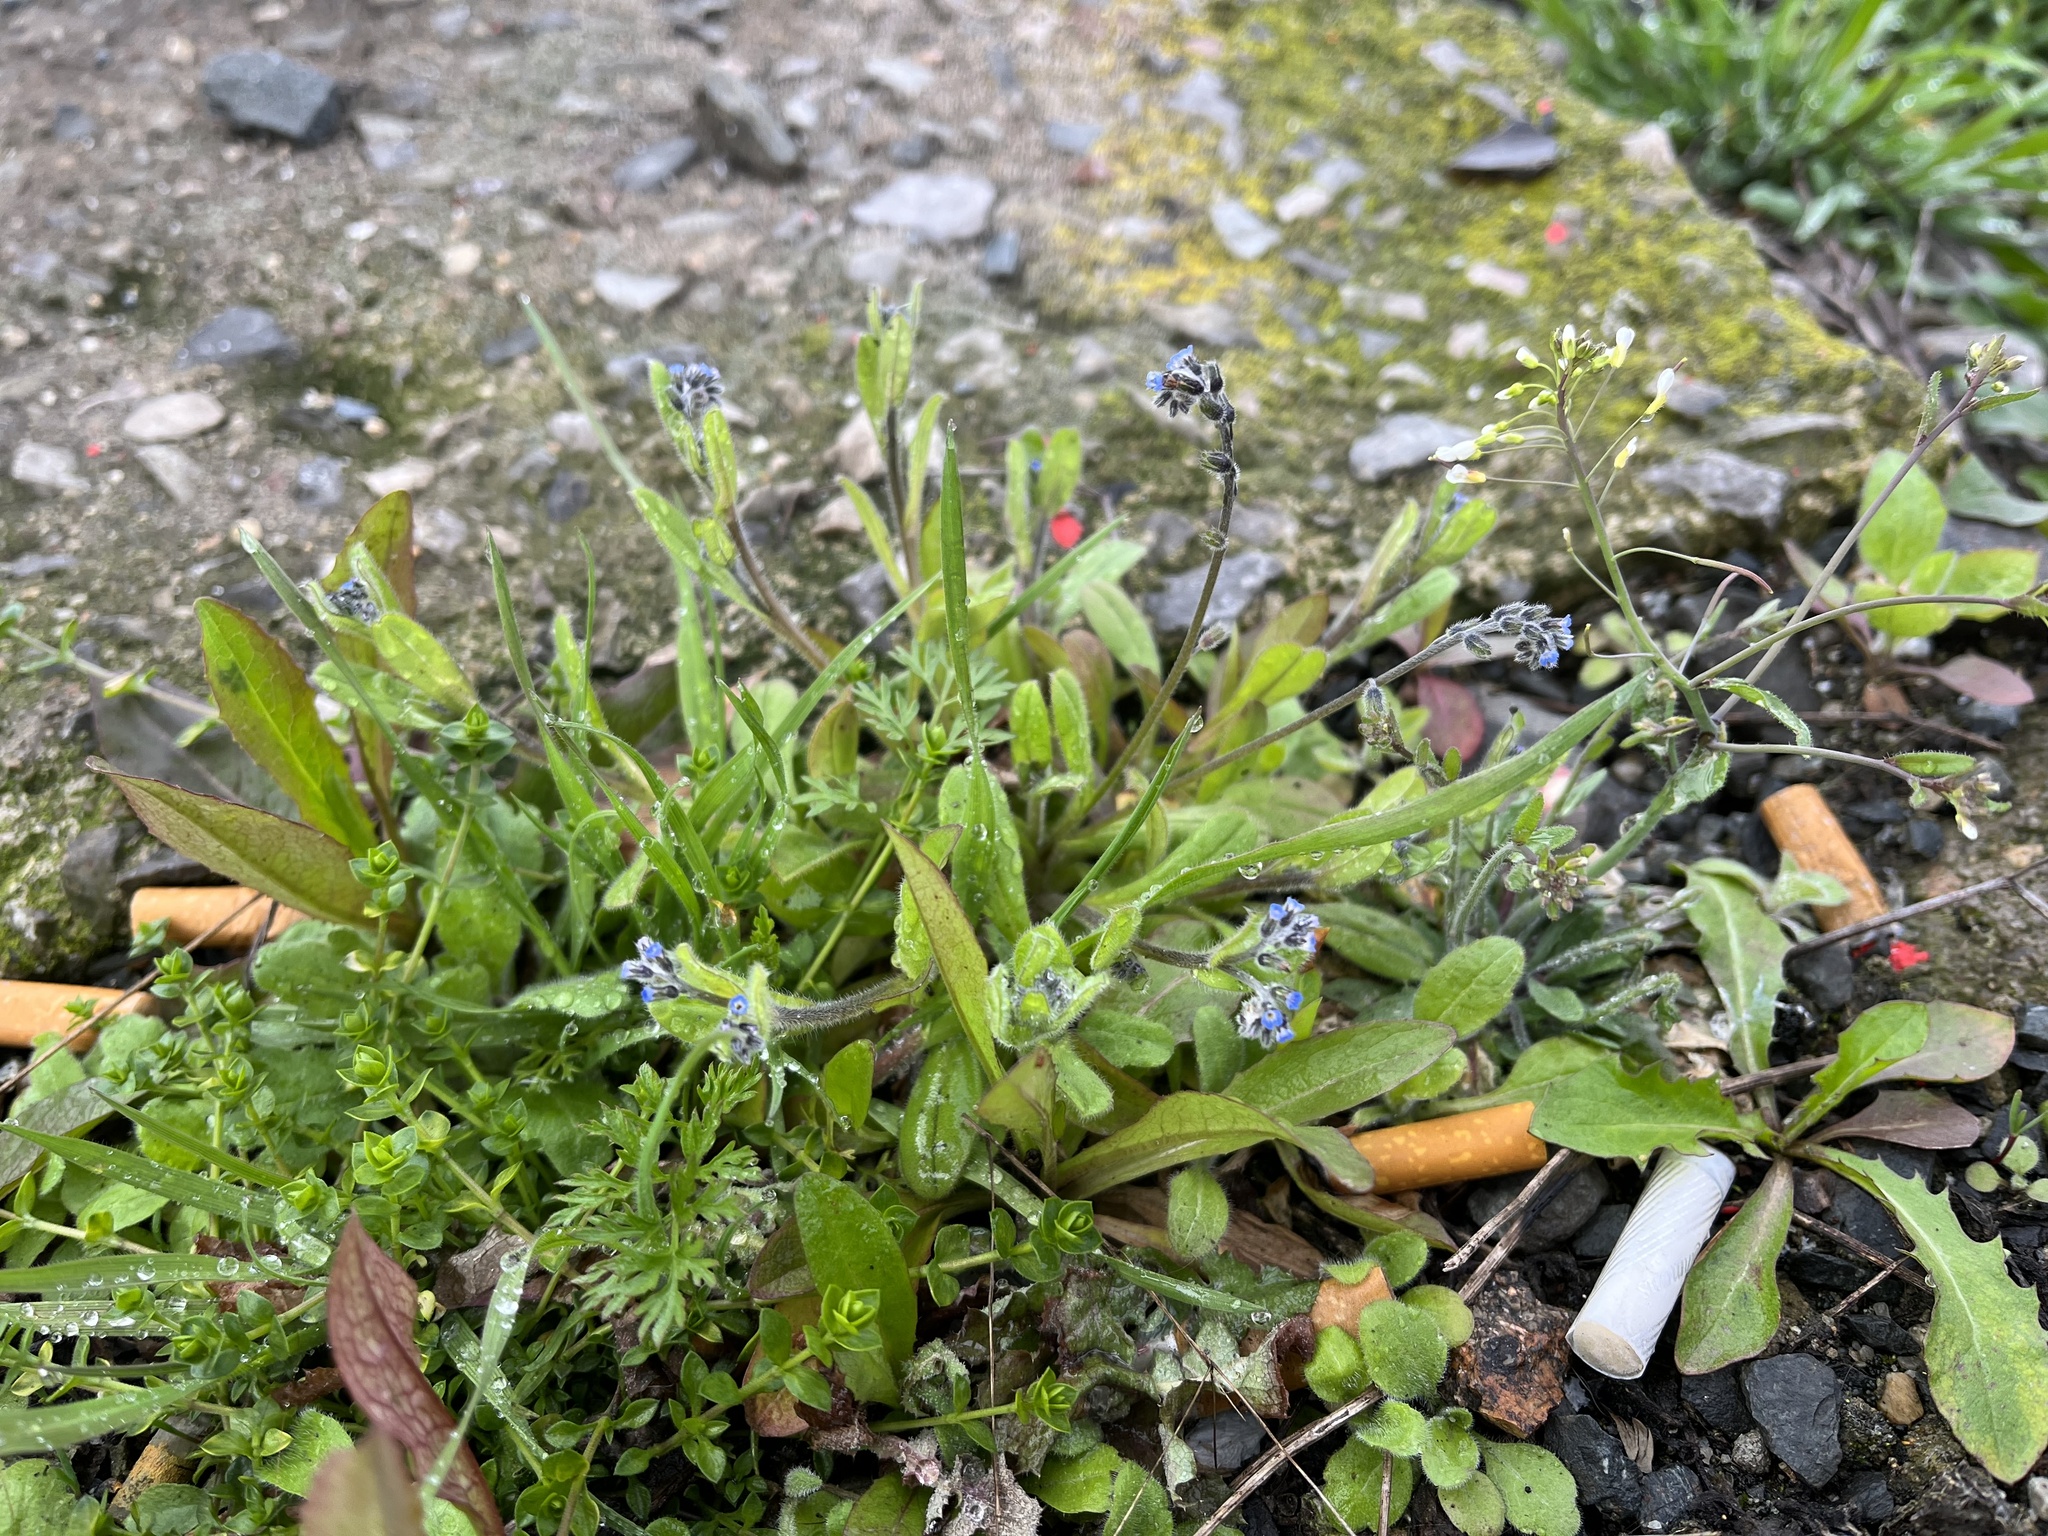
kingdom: Plantae
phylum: Tracheophyta
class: Magnoliopsida
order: Boraginales
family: Boraginaceae
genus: Myosotis
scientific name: Myosotis ramosissima
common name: Early forget-me-not
